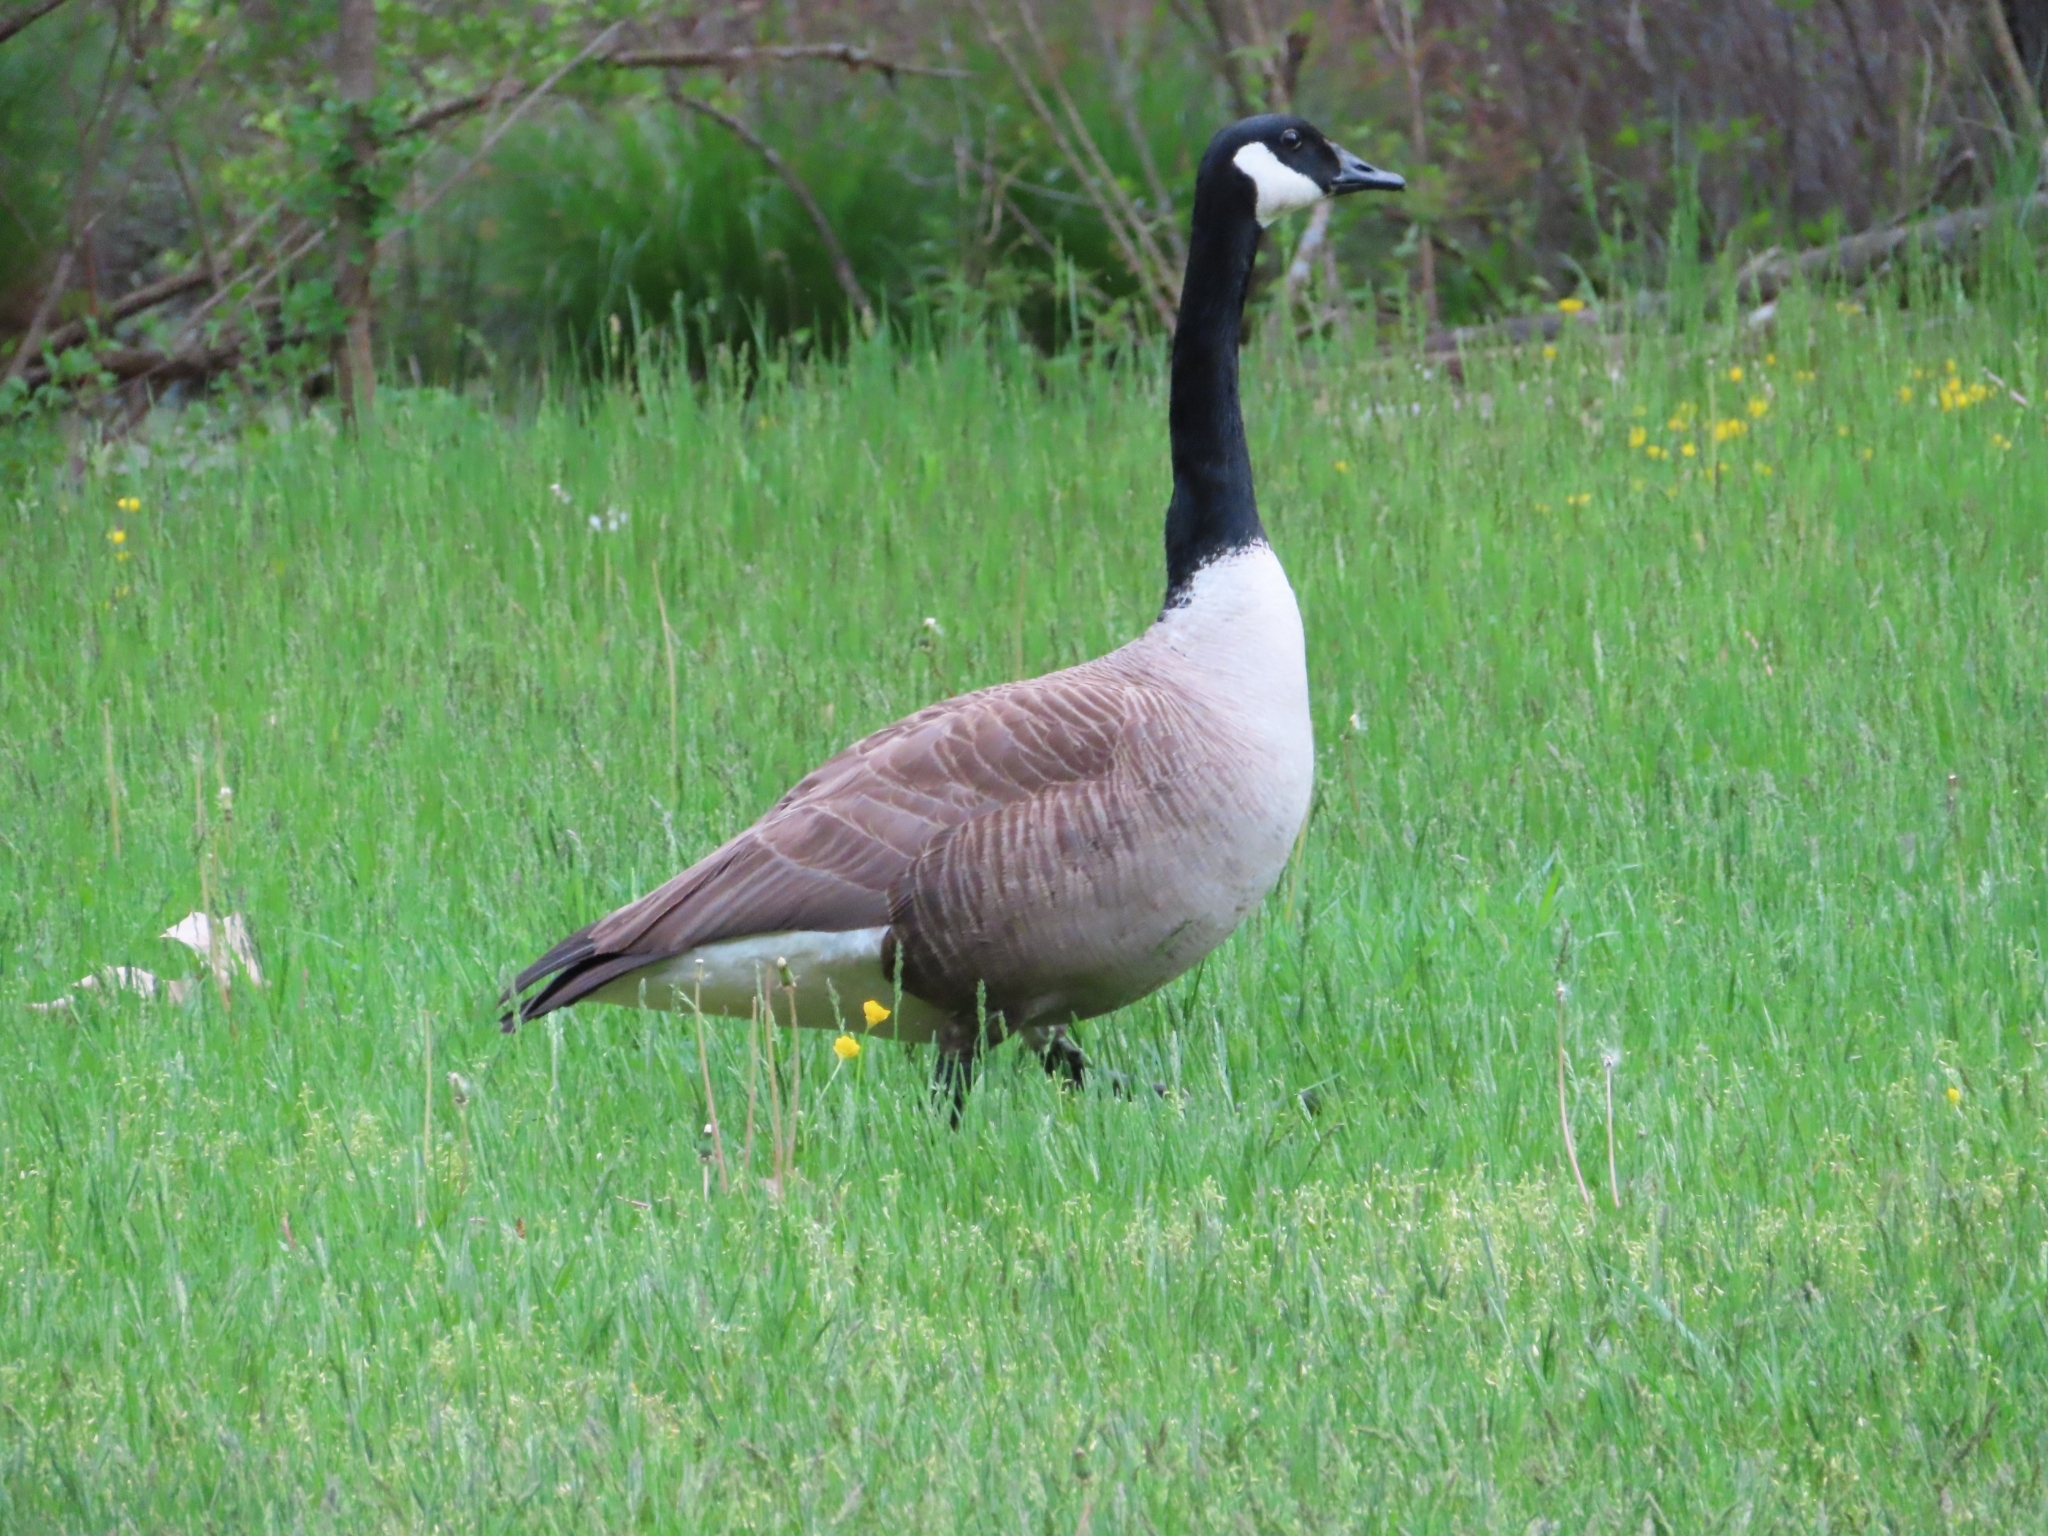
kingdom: Animalia
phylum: Chordata
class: Aves
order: Anseriformes
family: Anatidae
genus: Branta
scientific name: Branta canadensis
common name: Canada goose
